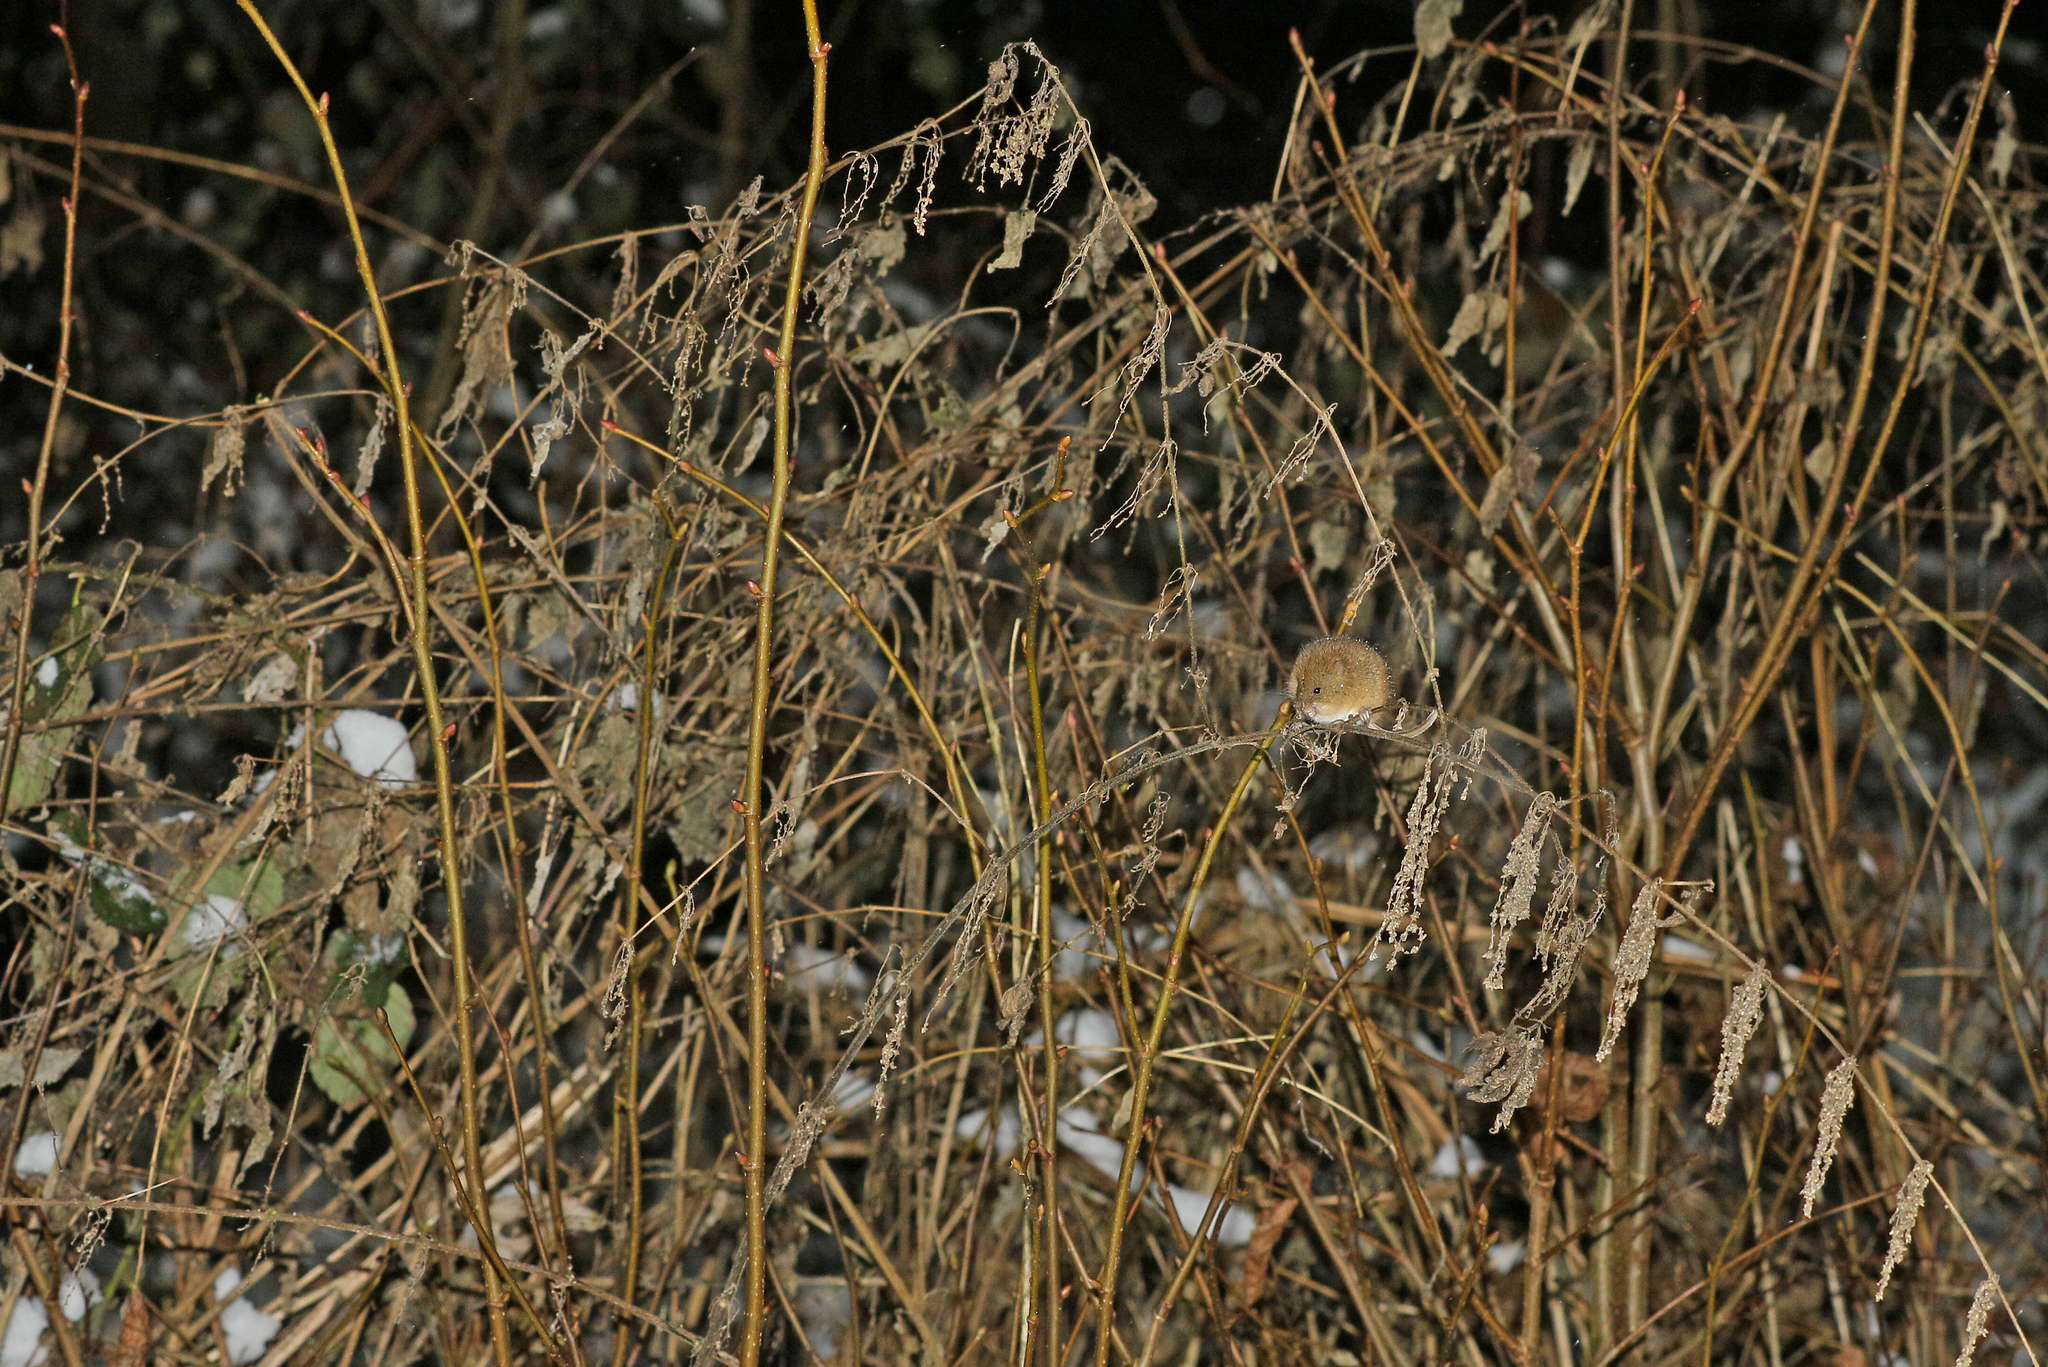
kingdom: Animalia
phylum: Chordata
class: Mammalia
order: Rodentia
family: Muridae
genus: Micromys
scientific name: Micromys minutus
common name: Harvest mouse
